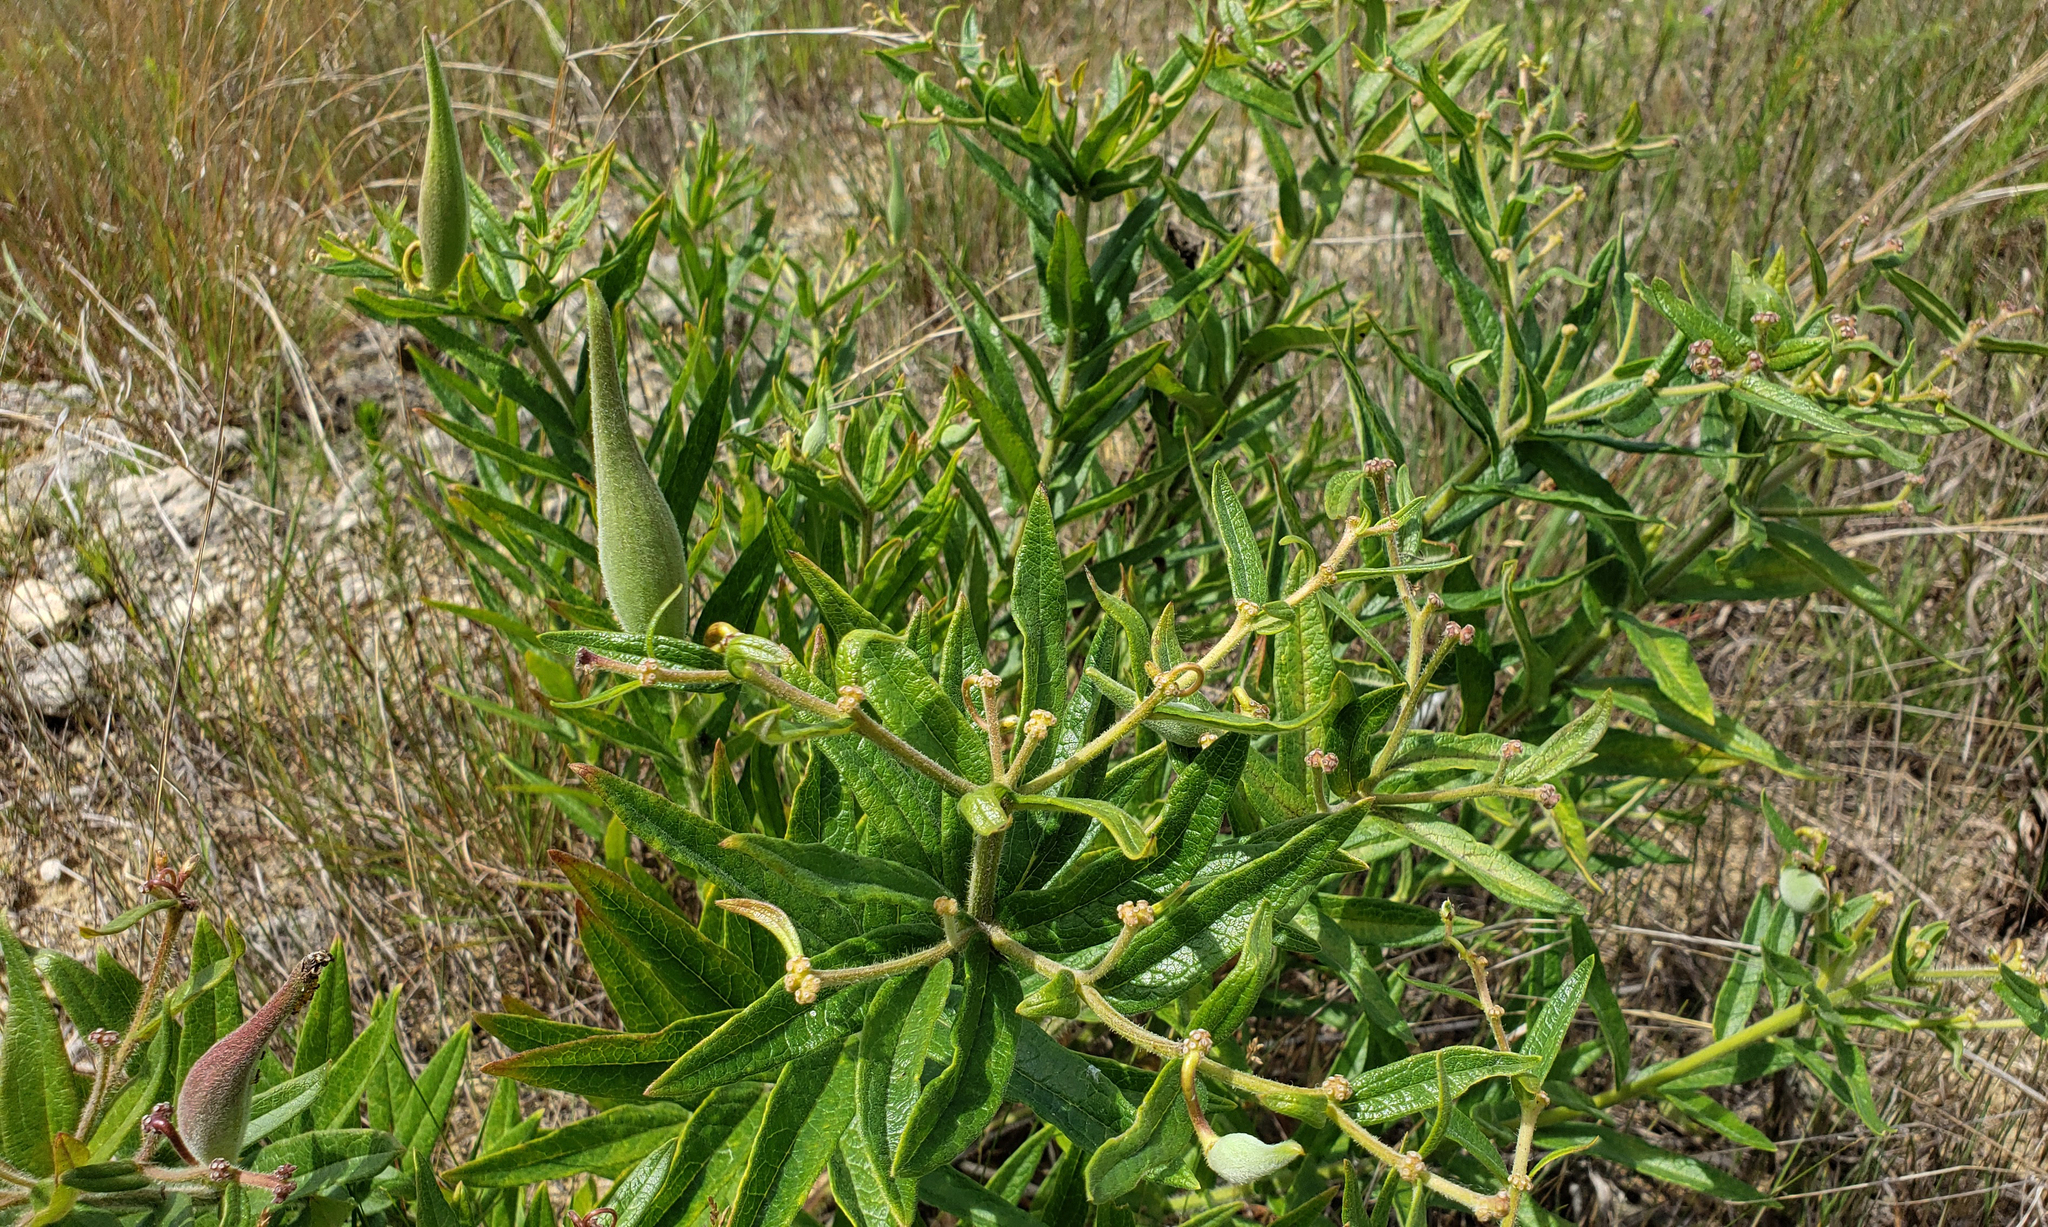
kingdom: Plantae
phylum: Tracheophyta
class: Magnoliopsida
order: Gentianales
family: Apocynaceae
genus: Asclepias
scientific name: Asclepias tuberosa
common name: Butterfly milkweed
